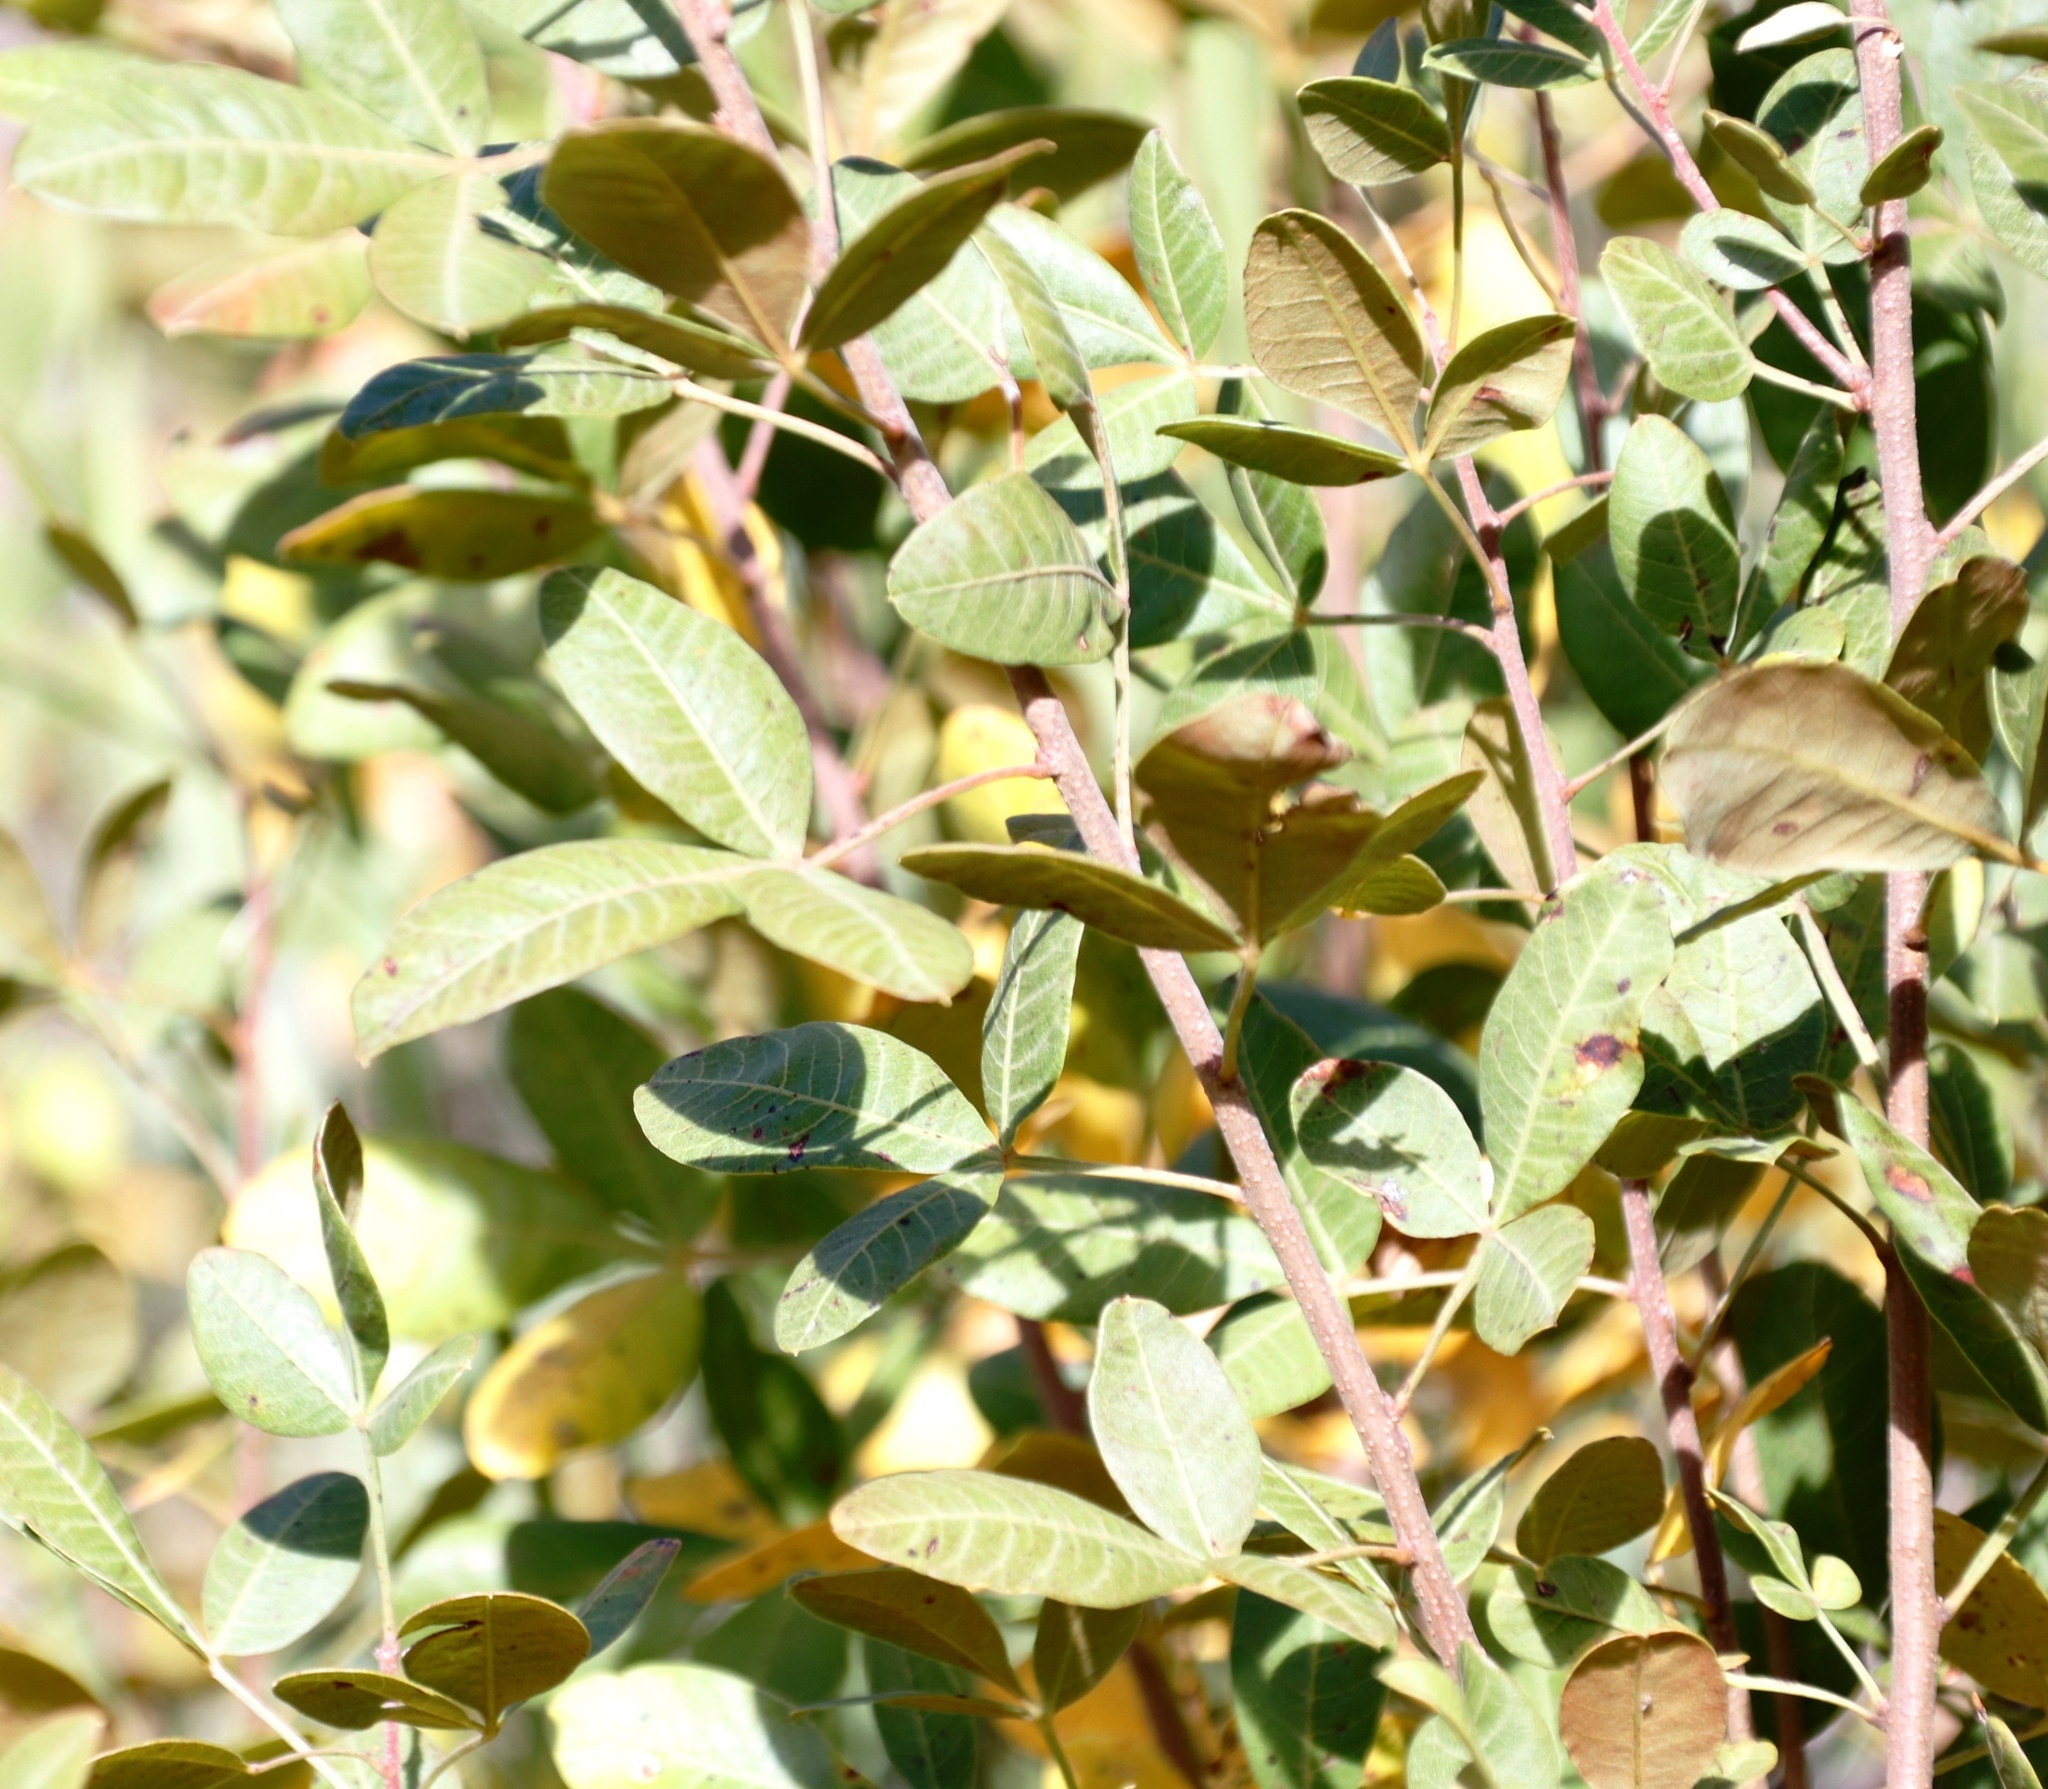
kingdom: Plantae
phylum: Tracheophyta
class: Magnoliopsida
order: Sapindales
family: Anacardiaceae
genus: Searsia
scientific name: Searsia divaricata
